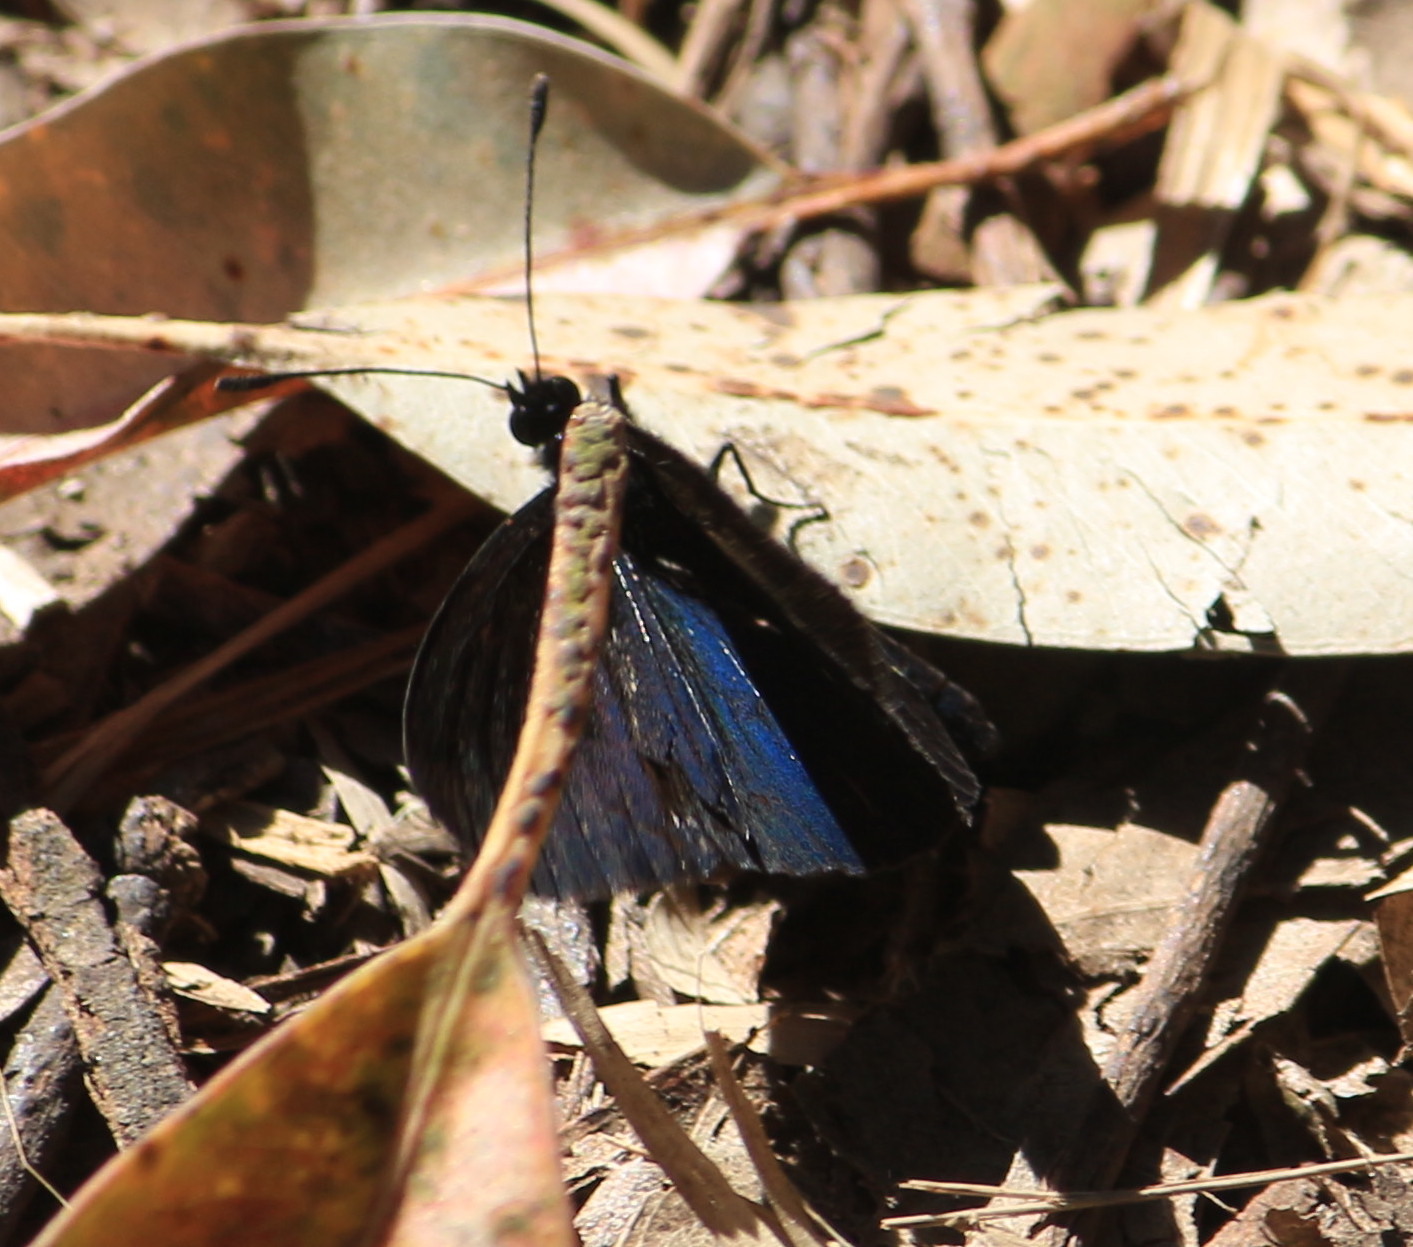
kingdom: Animalia
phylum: Arthropoda
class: Insecta
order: Lepidoptera
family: Nymphalidae
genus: Acraea
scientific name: Acraea Altinote ozomene
